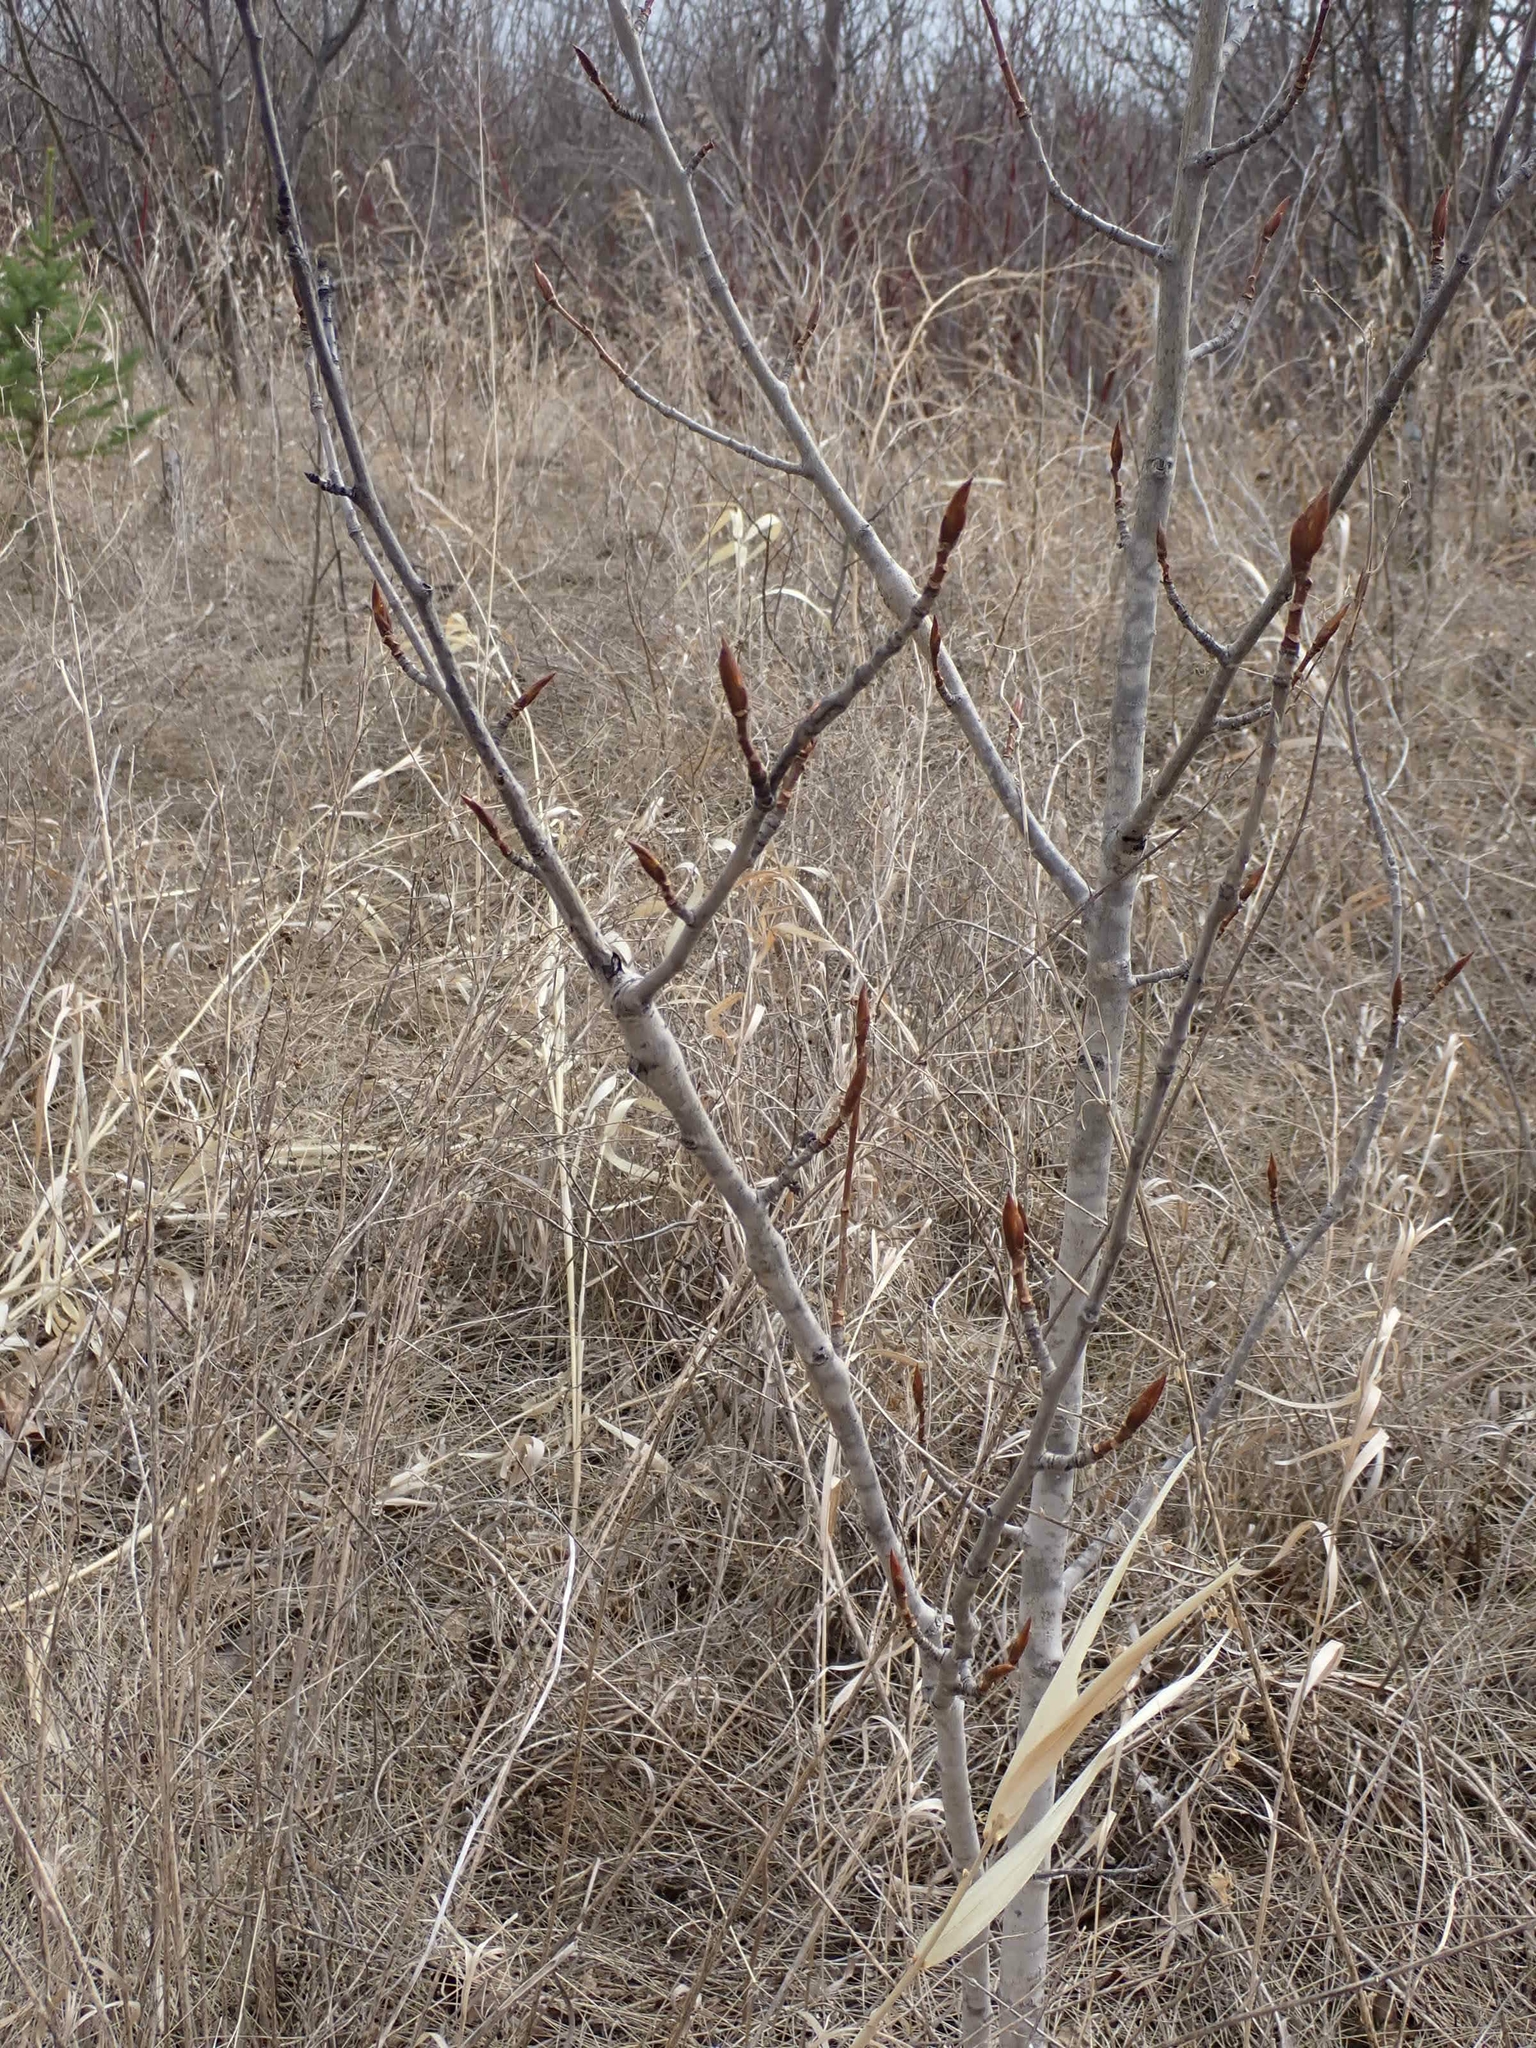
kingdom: Plantae
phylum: Tracheophyta
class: Magnoliopsida
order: Malpighiales
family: Salicaceae
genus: Populus
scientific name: Populus balsamifera
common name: Balsam poplar
